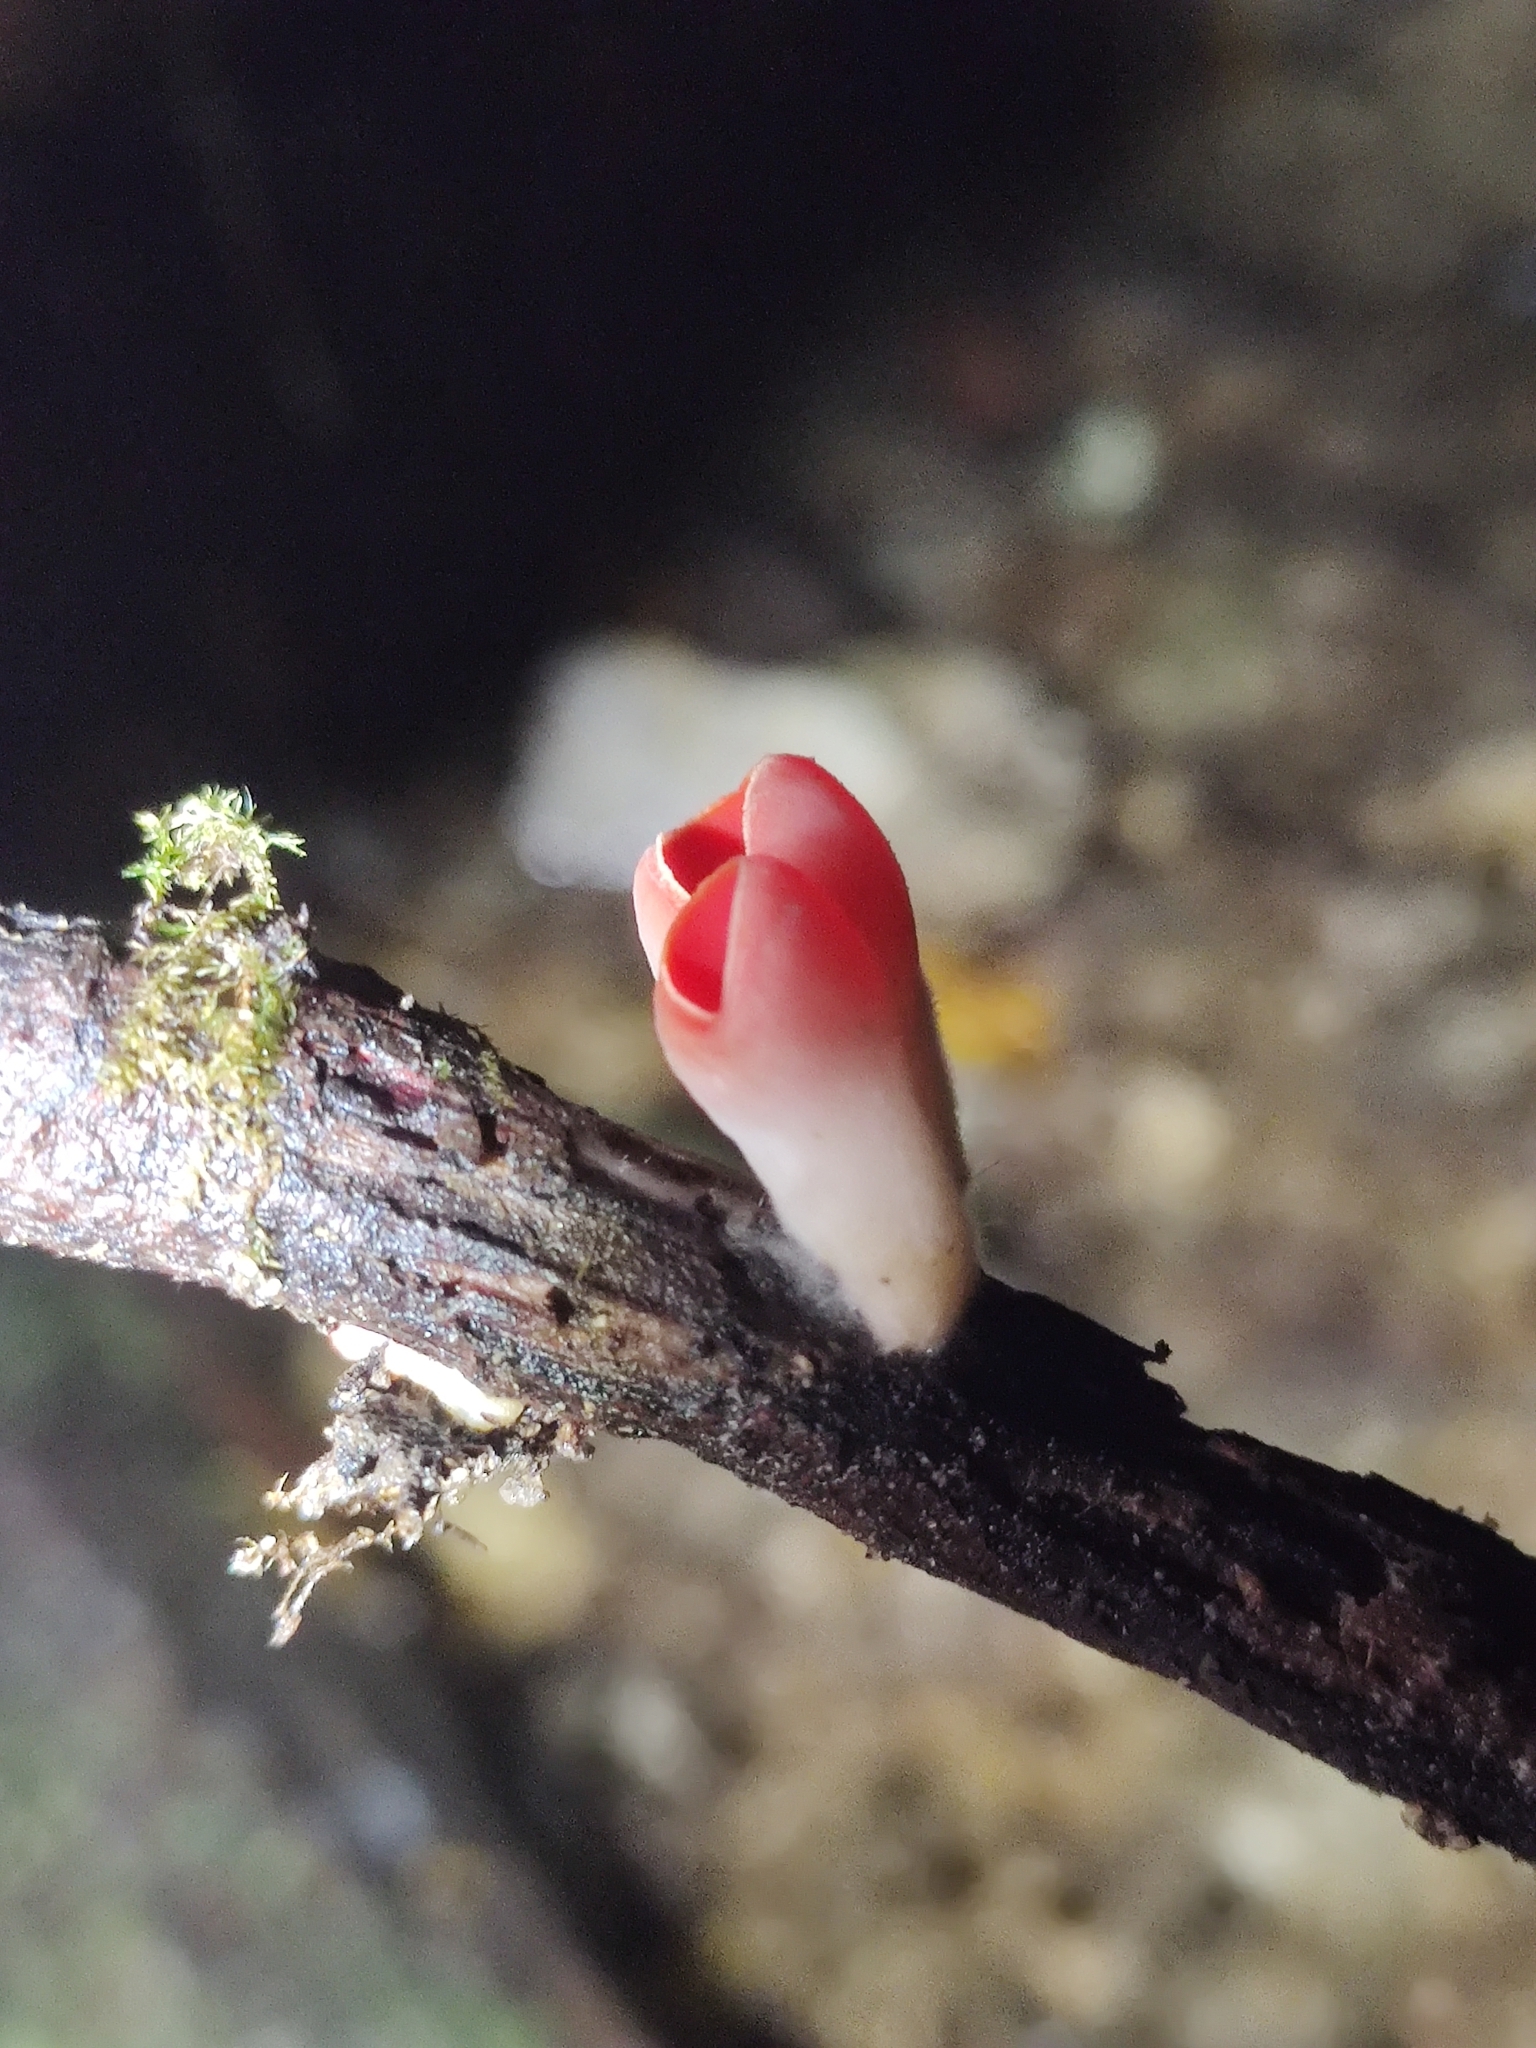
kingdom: Fungi
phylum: Ascomycota
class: Pezizomycetes
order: Pezizales
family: Sarcoscyphaceae
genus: Sarcoscypha
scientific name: Sarcoscypha
